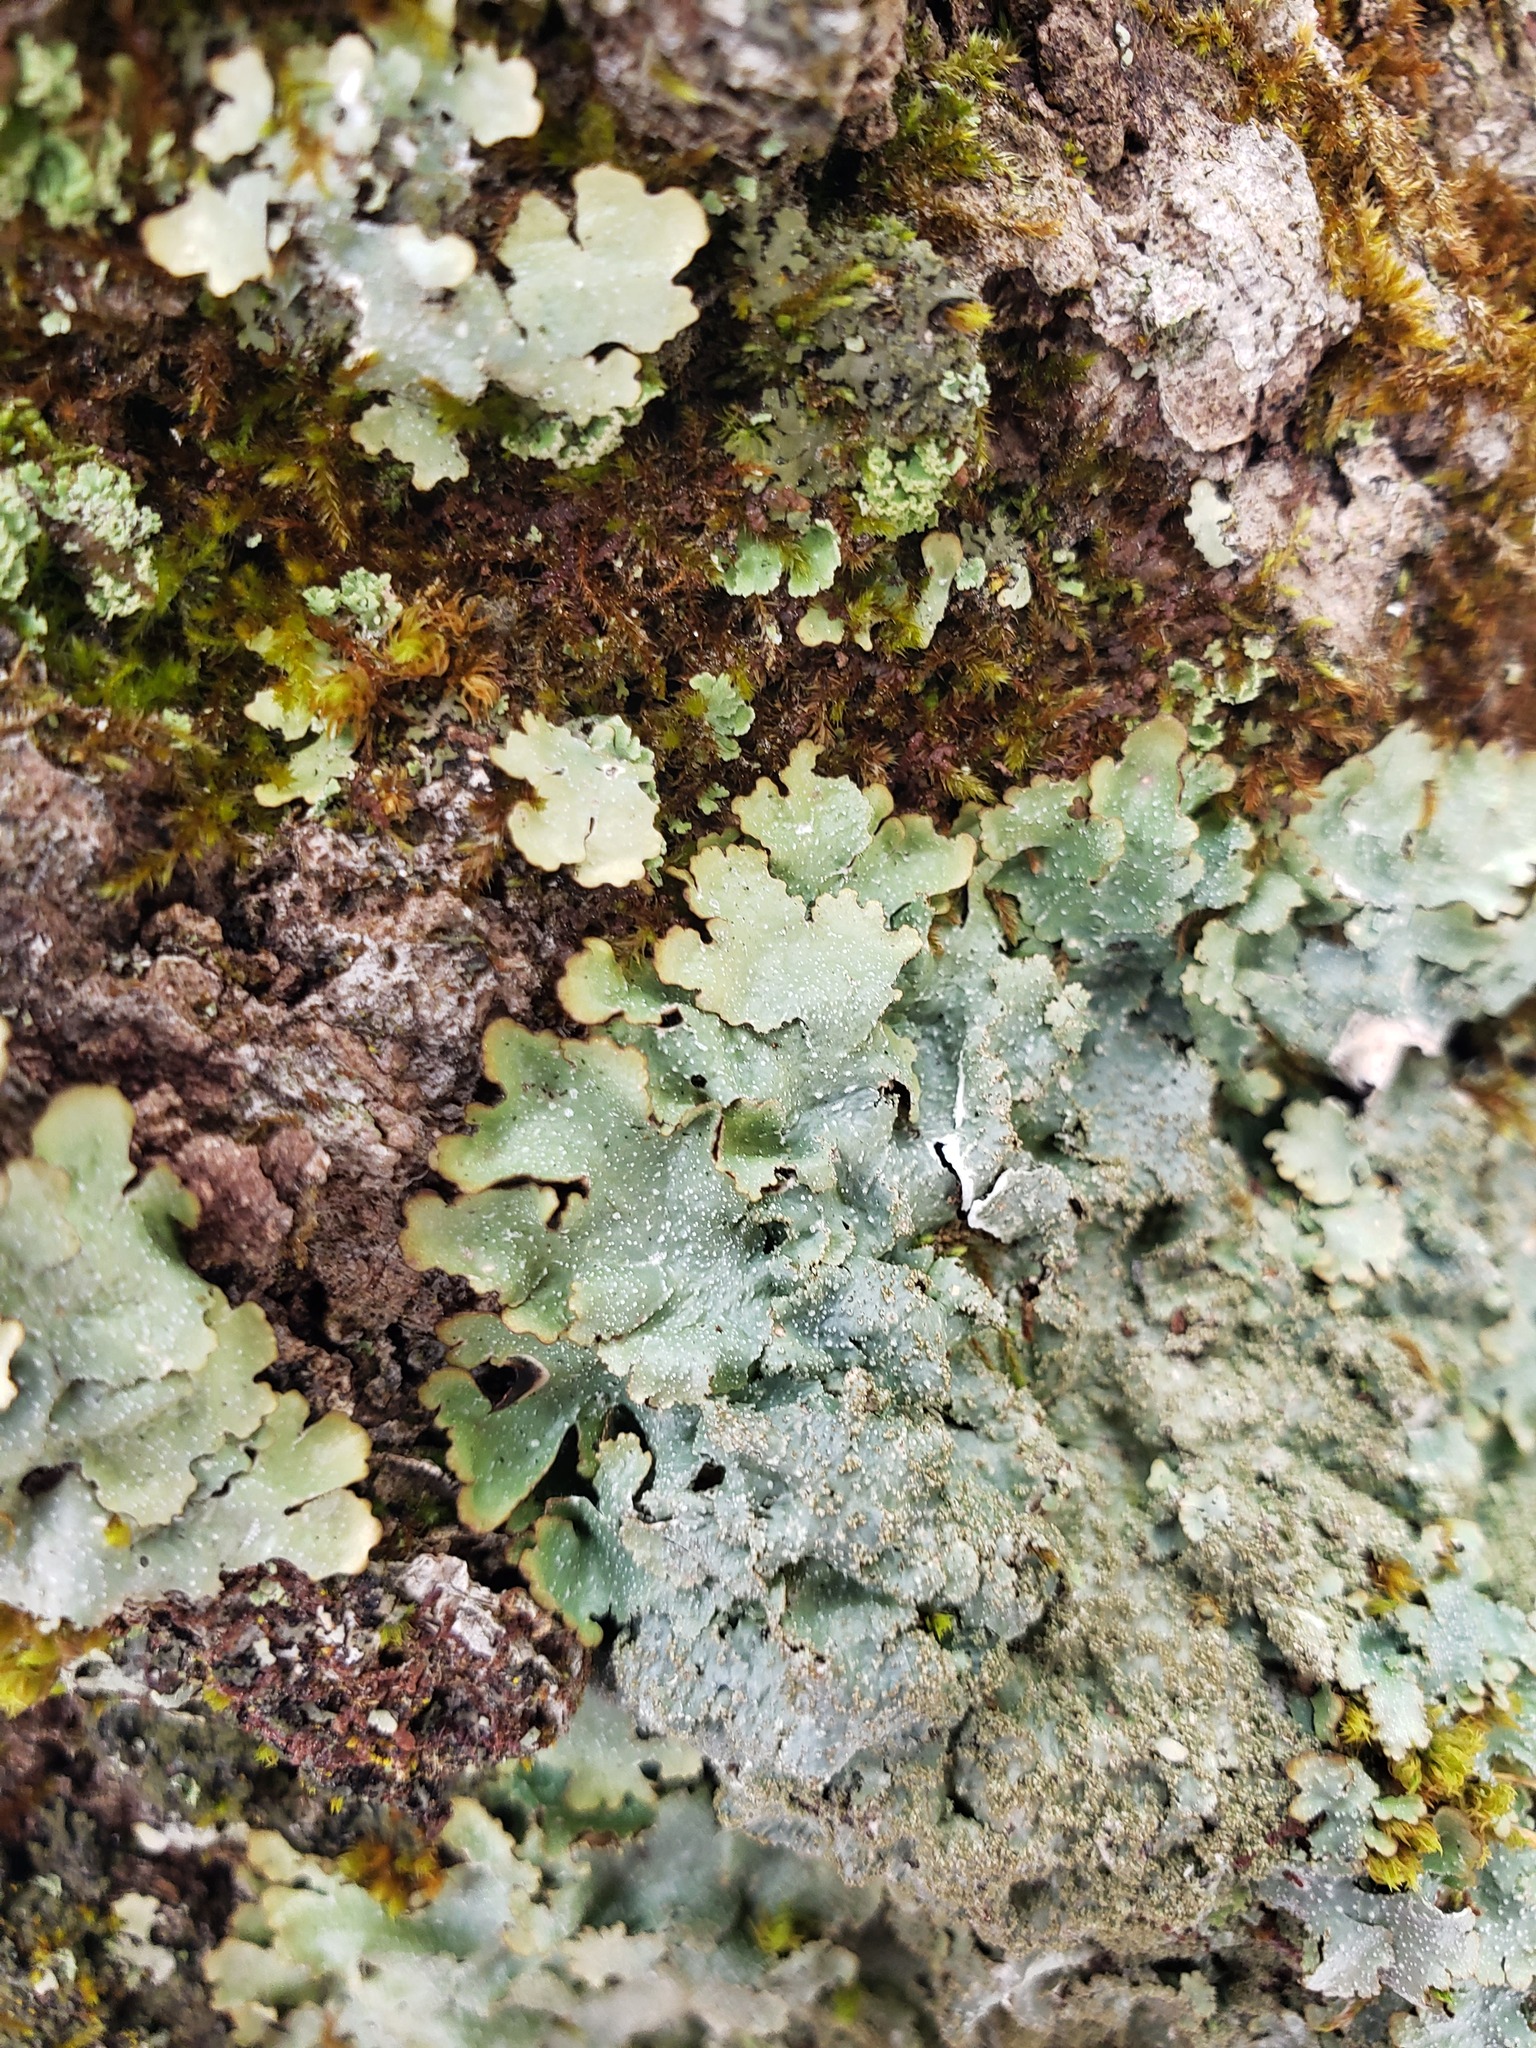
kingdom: Fungi
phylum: Ascomycota
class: Lecanoromycetes
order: Lecanorales
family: Parmeliaceae
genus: Punctelia
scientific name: Punctelia rudecta
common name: Rough speckled shield lichen
